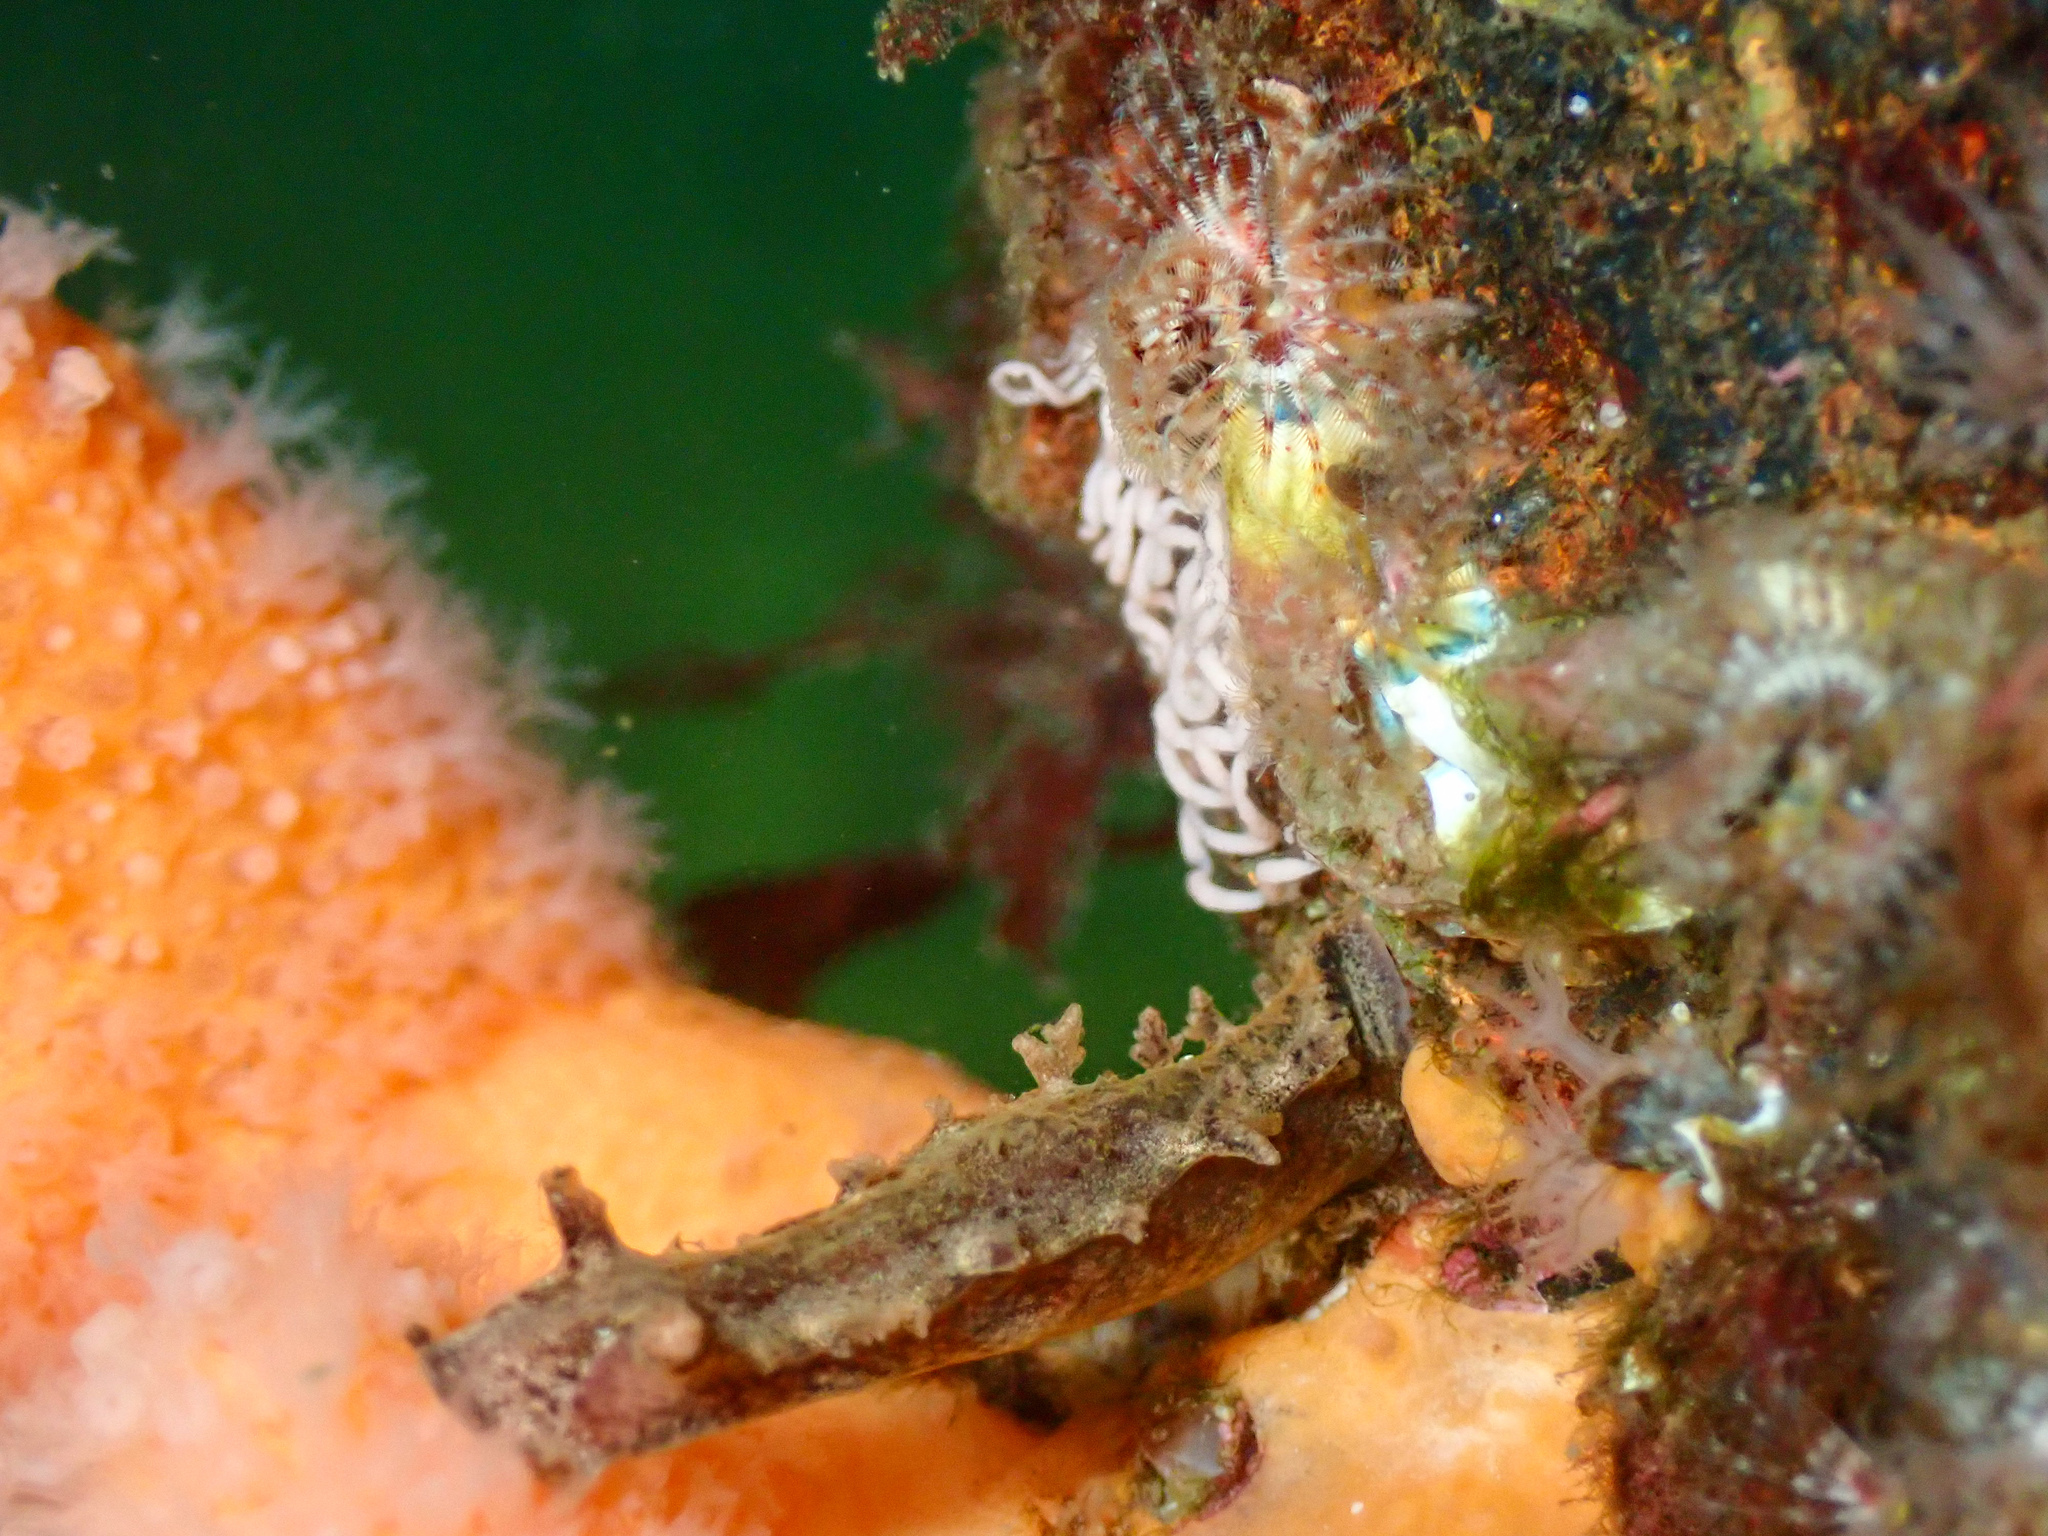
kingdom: Animalia
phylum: Mollusca
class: Gastropoda
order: Nudibranchia
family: Tritoniidae
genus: Duvaucelia
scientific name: Duvaucelia plebeia
